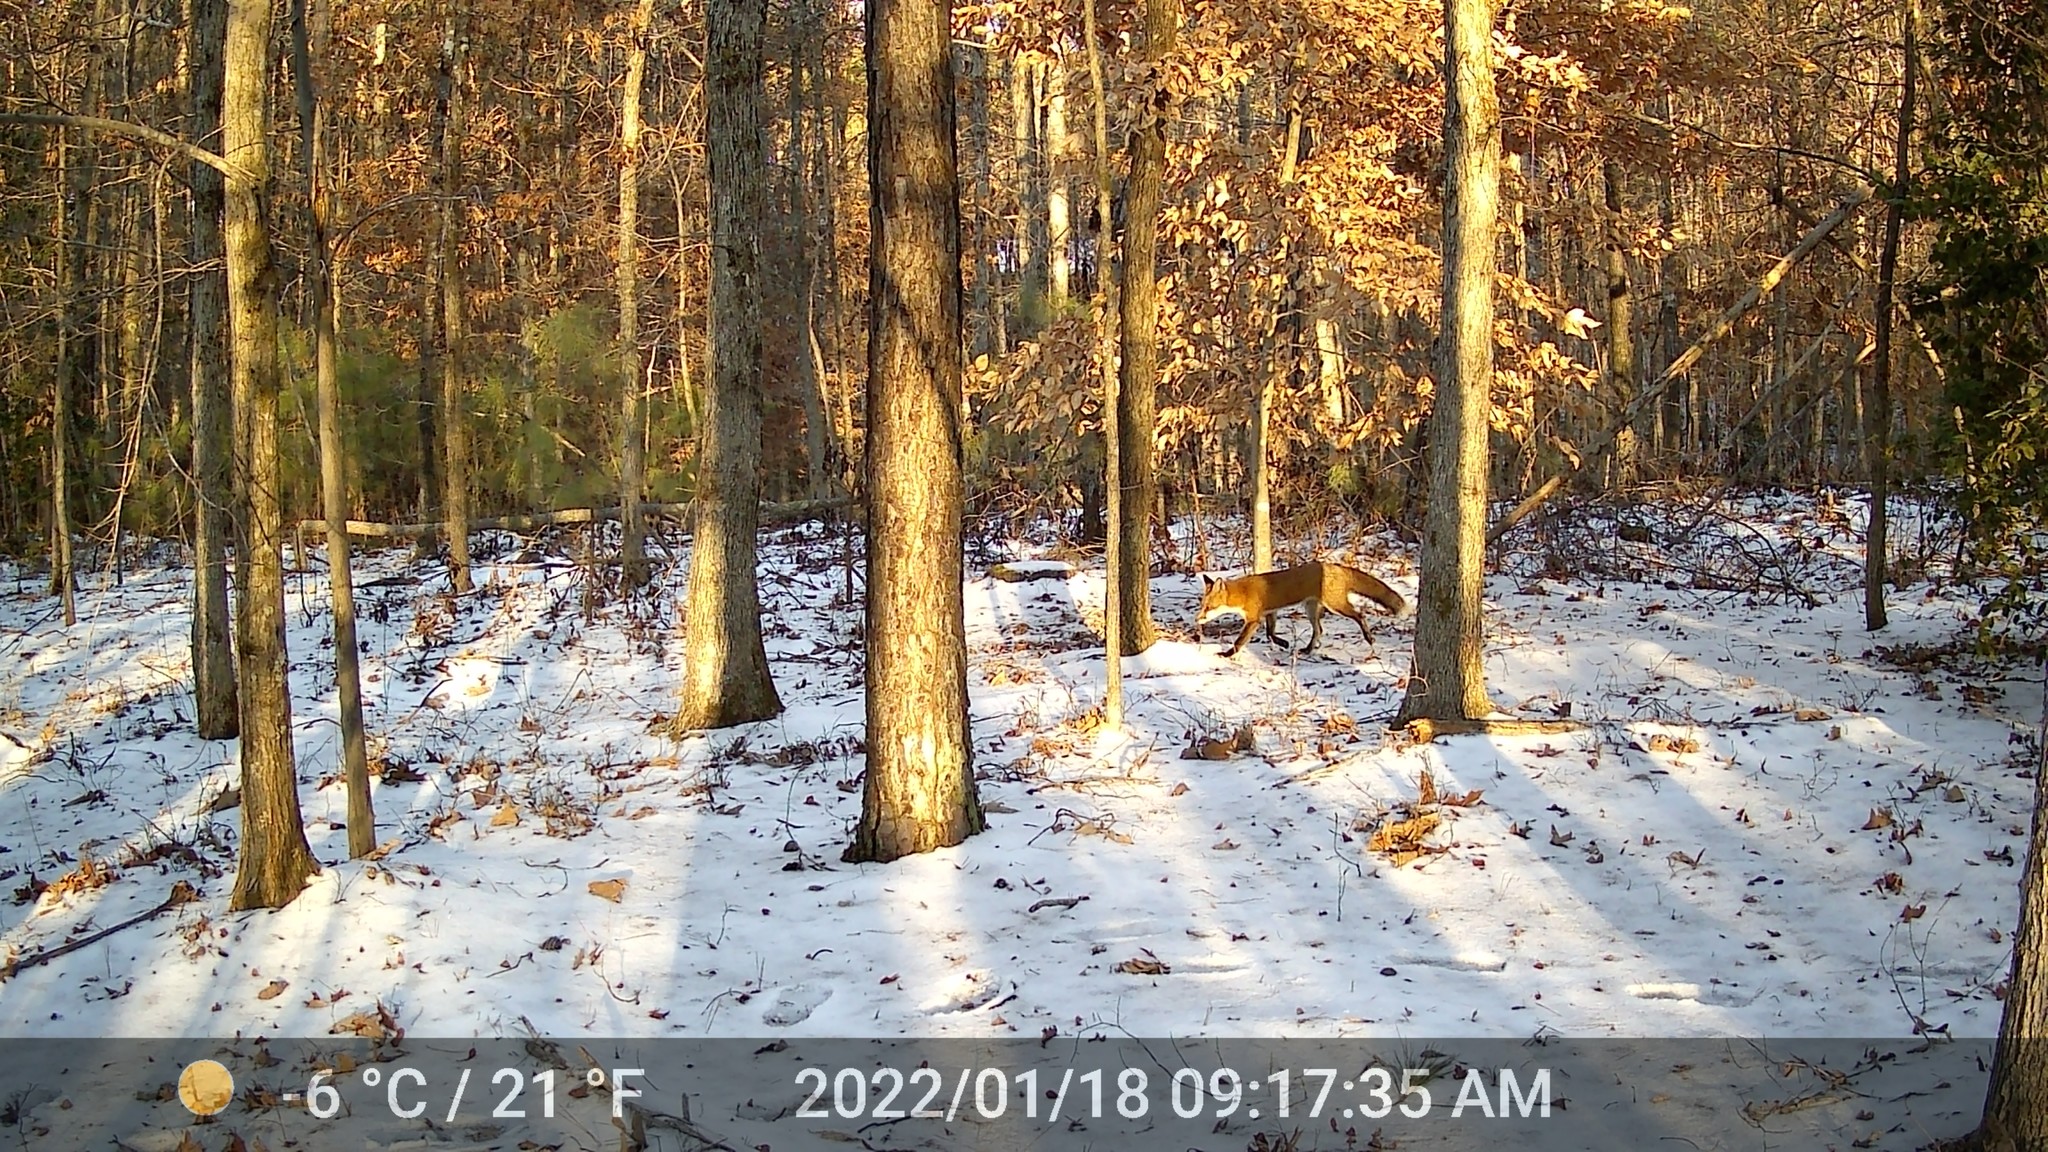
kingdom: Animalia
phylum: Chordata
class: Mammalia
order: Carnivora
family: Canidae
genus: Vulpes
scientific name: Vulpes vulpes
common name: Red fox
